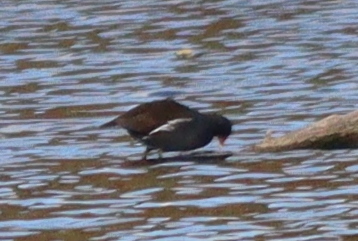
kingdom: Animalia
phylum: Chordata
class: Aves
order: Gruiformes
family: Rallidae
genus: Gallinula
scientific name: Gallinula chloropus
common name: Common moorhen
